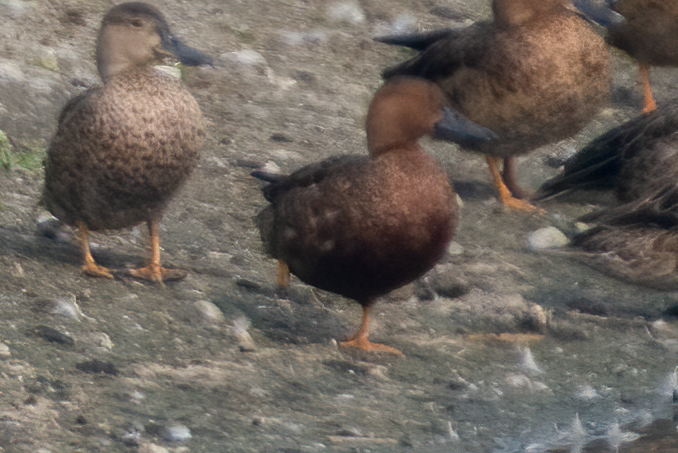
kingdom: Animalia
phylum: Chordata
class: Aves
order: Anseriformes
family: Anatidae
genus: Spatula
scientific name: Spatula cyanoptera
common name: Cinnamon teal
